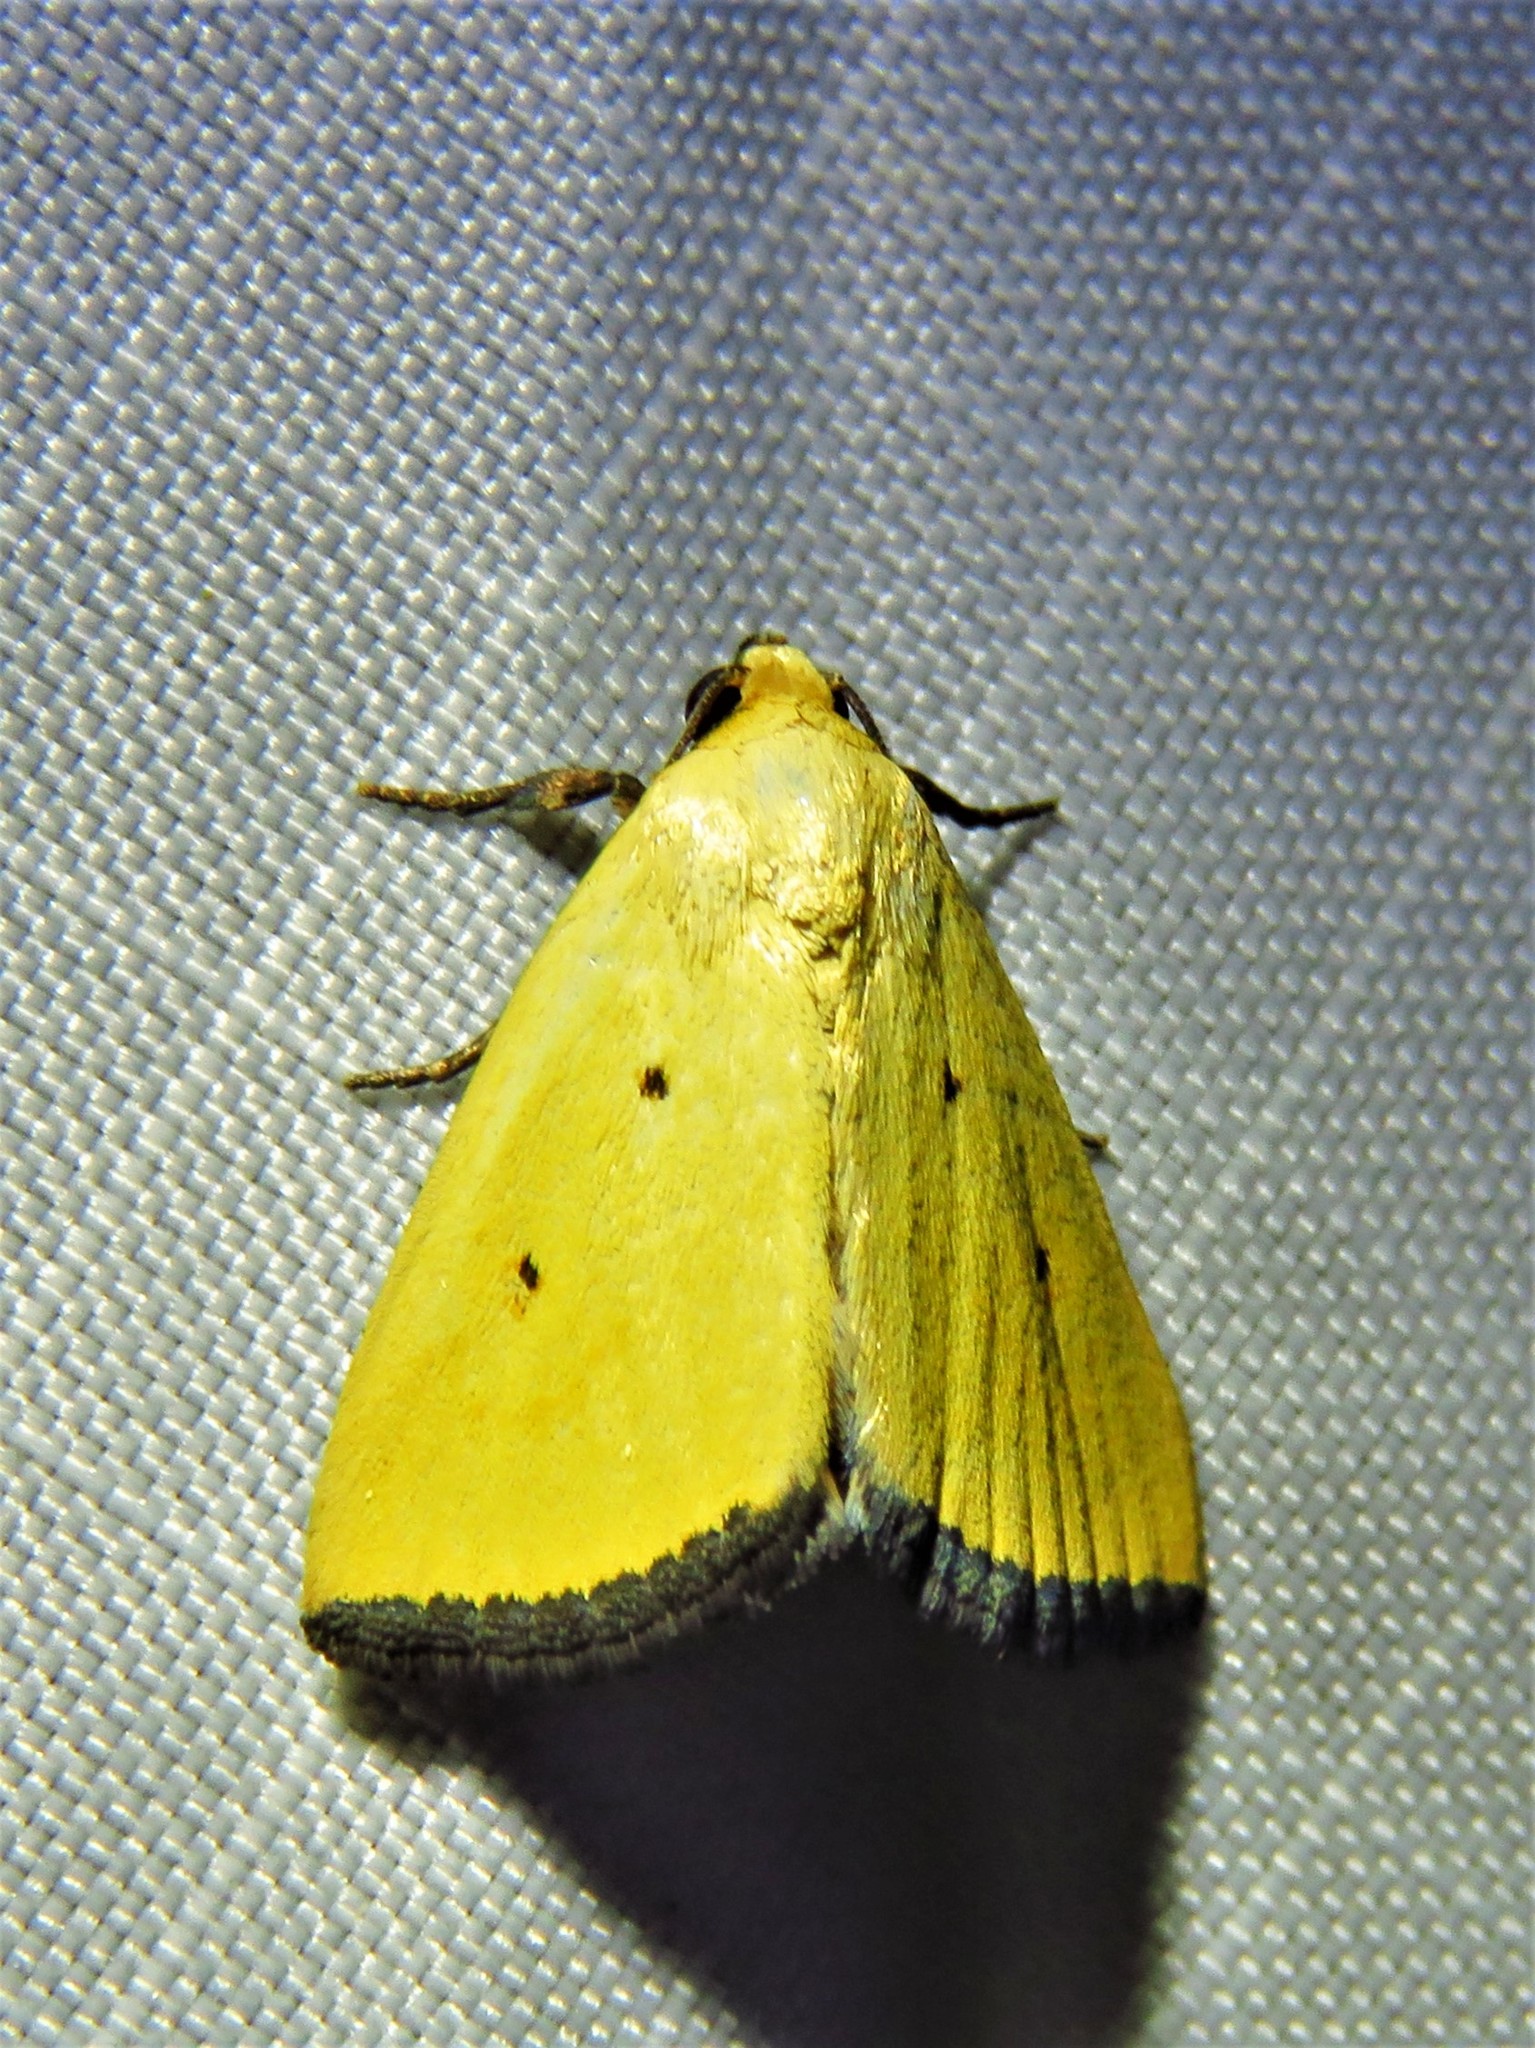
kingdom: Animalia
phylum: Arthropoda
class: Insecta
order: Lepidoptera
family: Noctuidae
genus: Marimatha
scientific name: Marimatha nigrofimbria
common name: Black-bordered lemon moth
